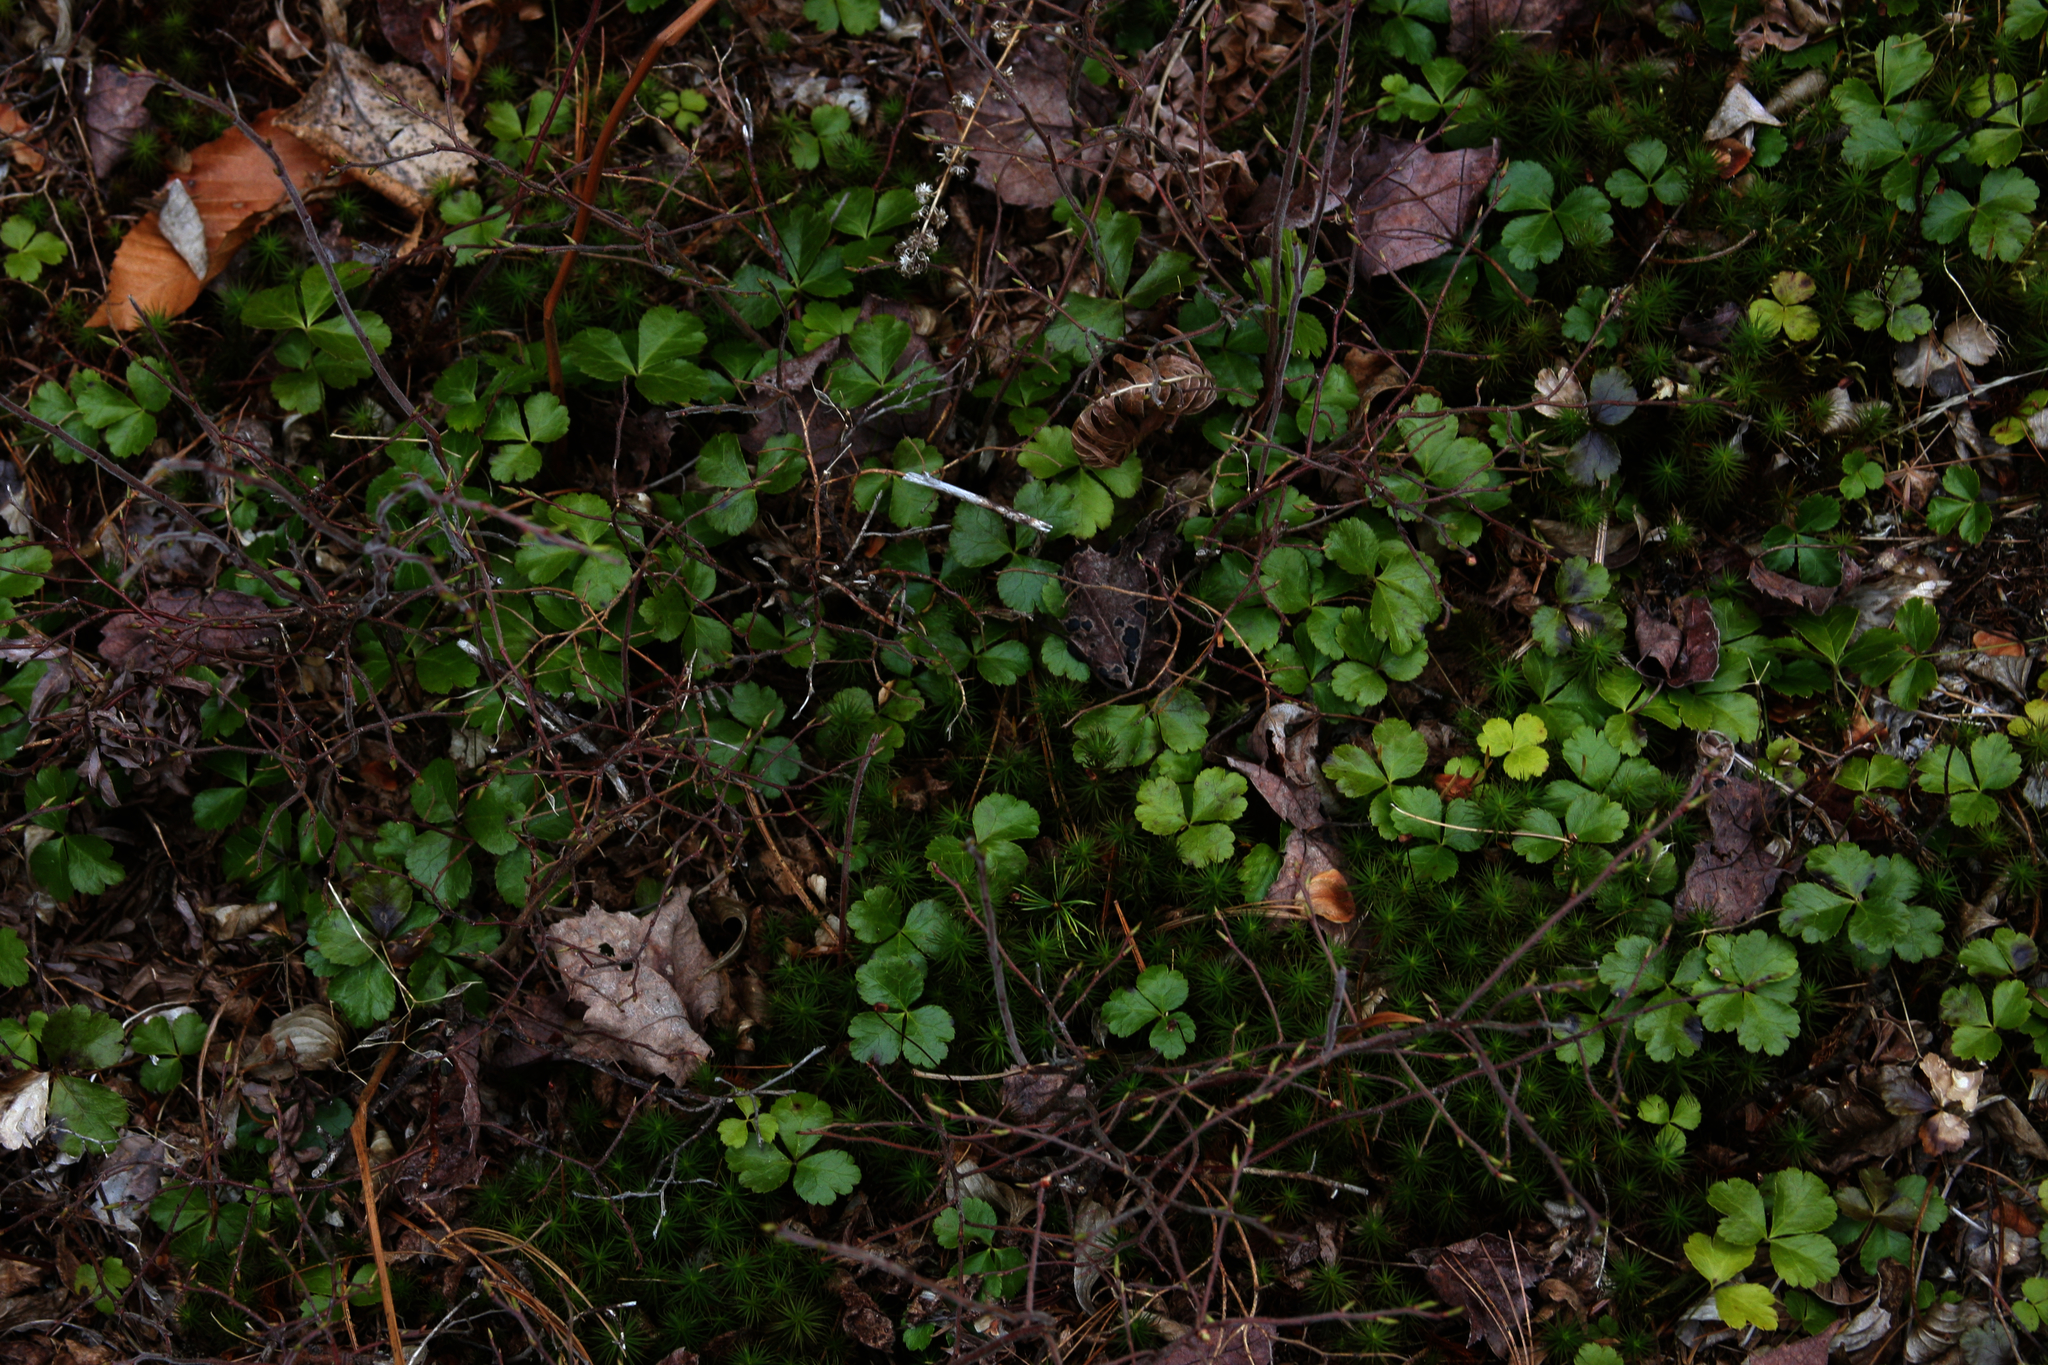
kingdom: Plantae
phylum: Tracheophyta
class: Magnoliopsida
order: Ranunculales
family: Ranunculaceae
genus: Coptis
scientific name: Coptis trifolia
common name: Canker-root
